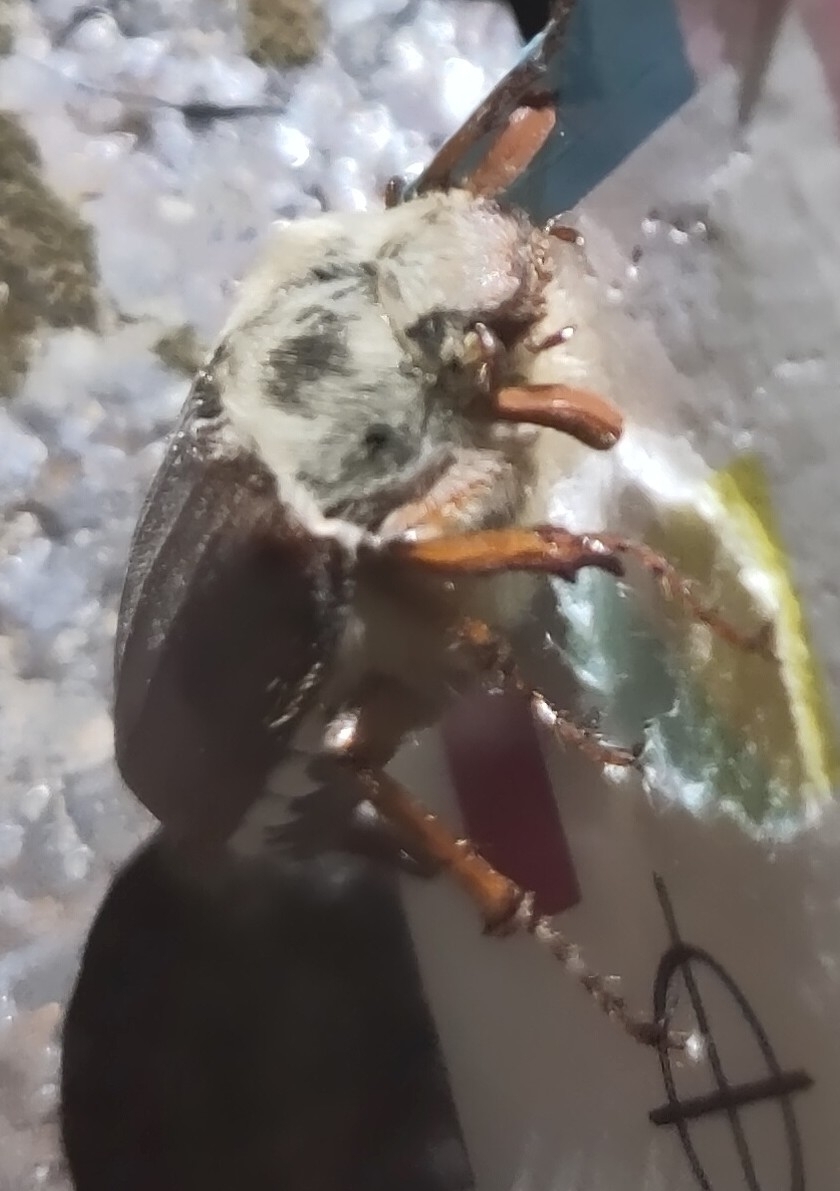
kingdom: Animalia
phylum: Arthropoda
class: Insecta
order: Coleoptera
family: Scarabaeidae
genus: Melolontha
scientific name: Melolontha melolontha
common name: Cockchafer maybeetle
